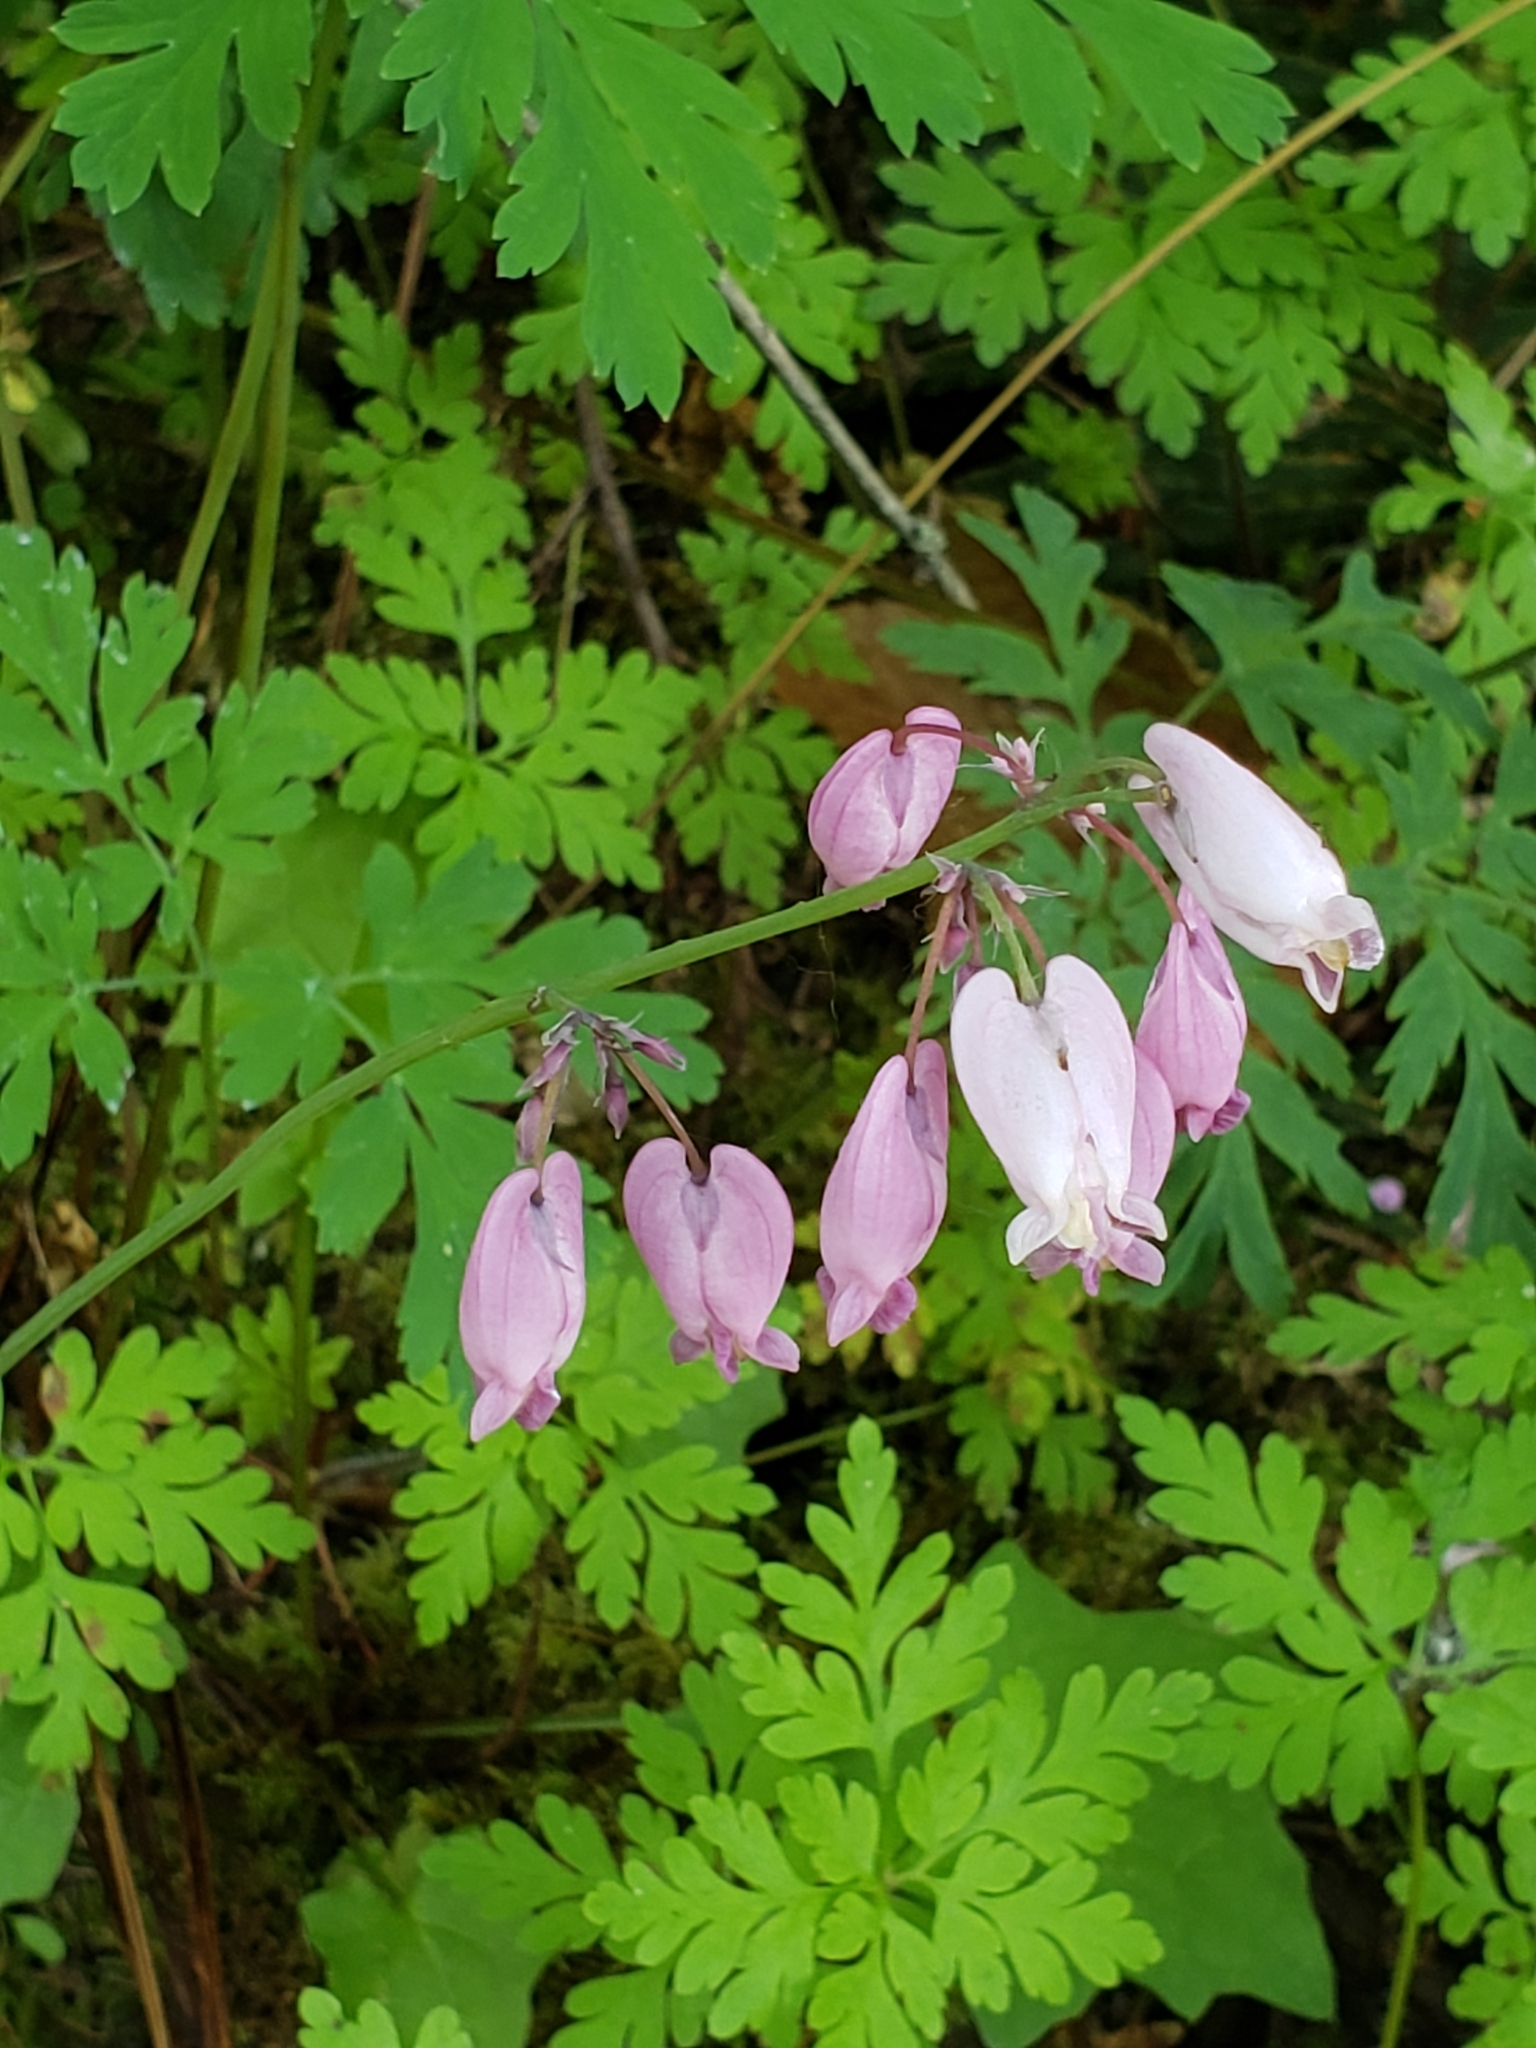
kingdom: Plantae
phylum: Tracheophyta
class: Magnoliopsida
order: Ranunculales
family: Papaveraceae
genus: Dicentra
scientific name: Dicentra formosa
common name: Bleeding-heart
